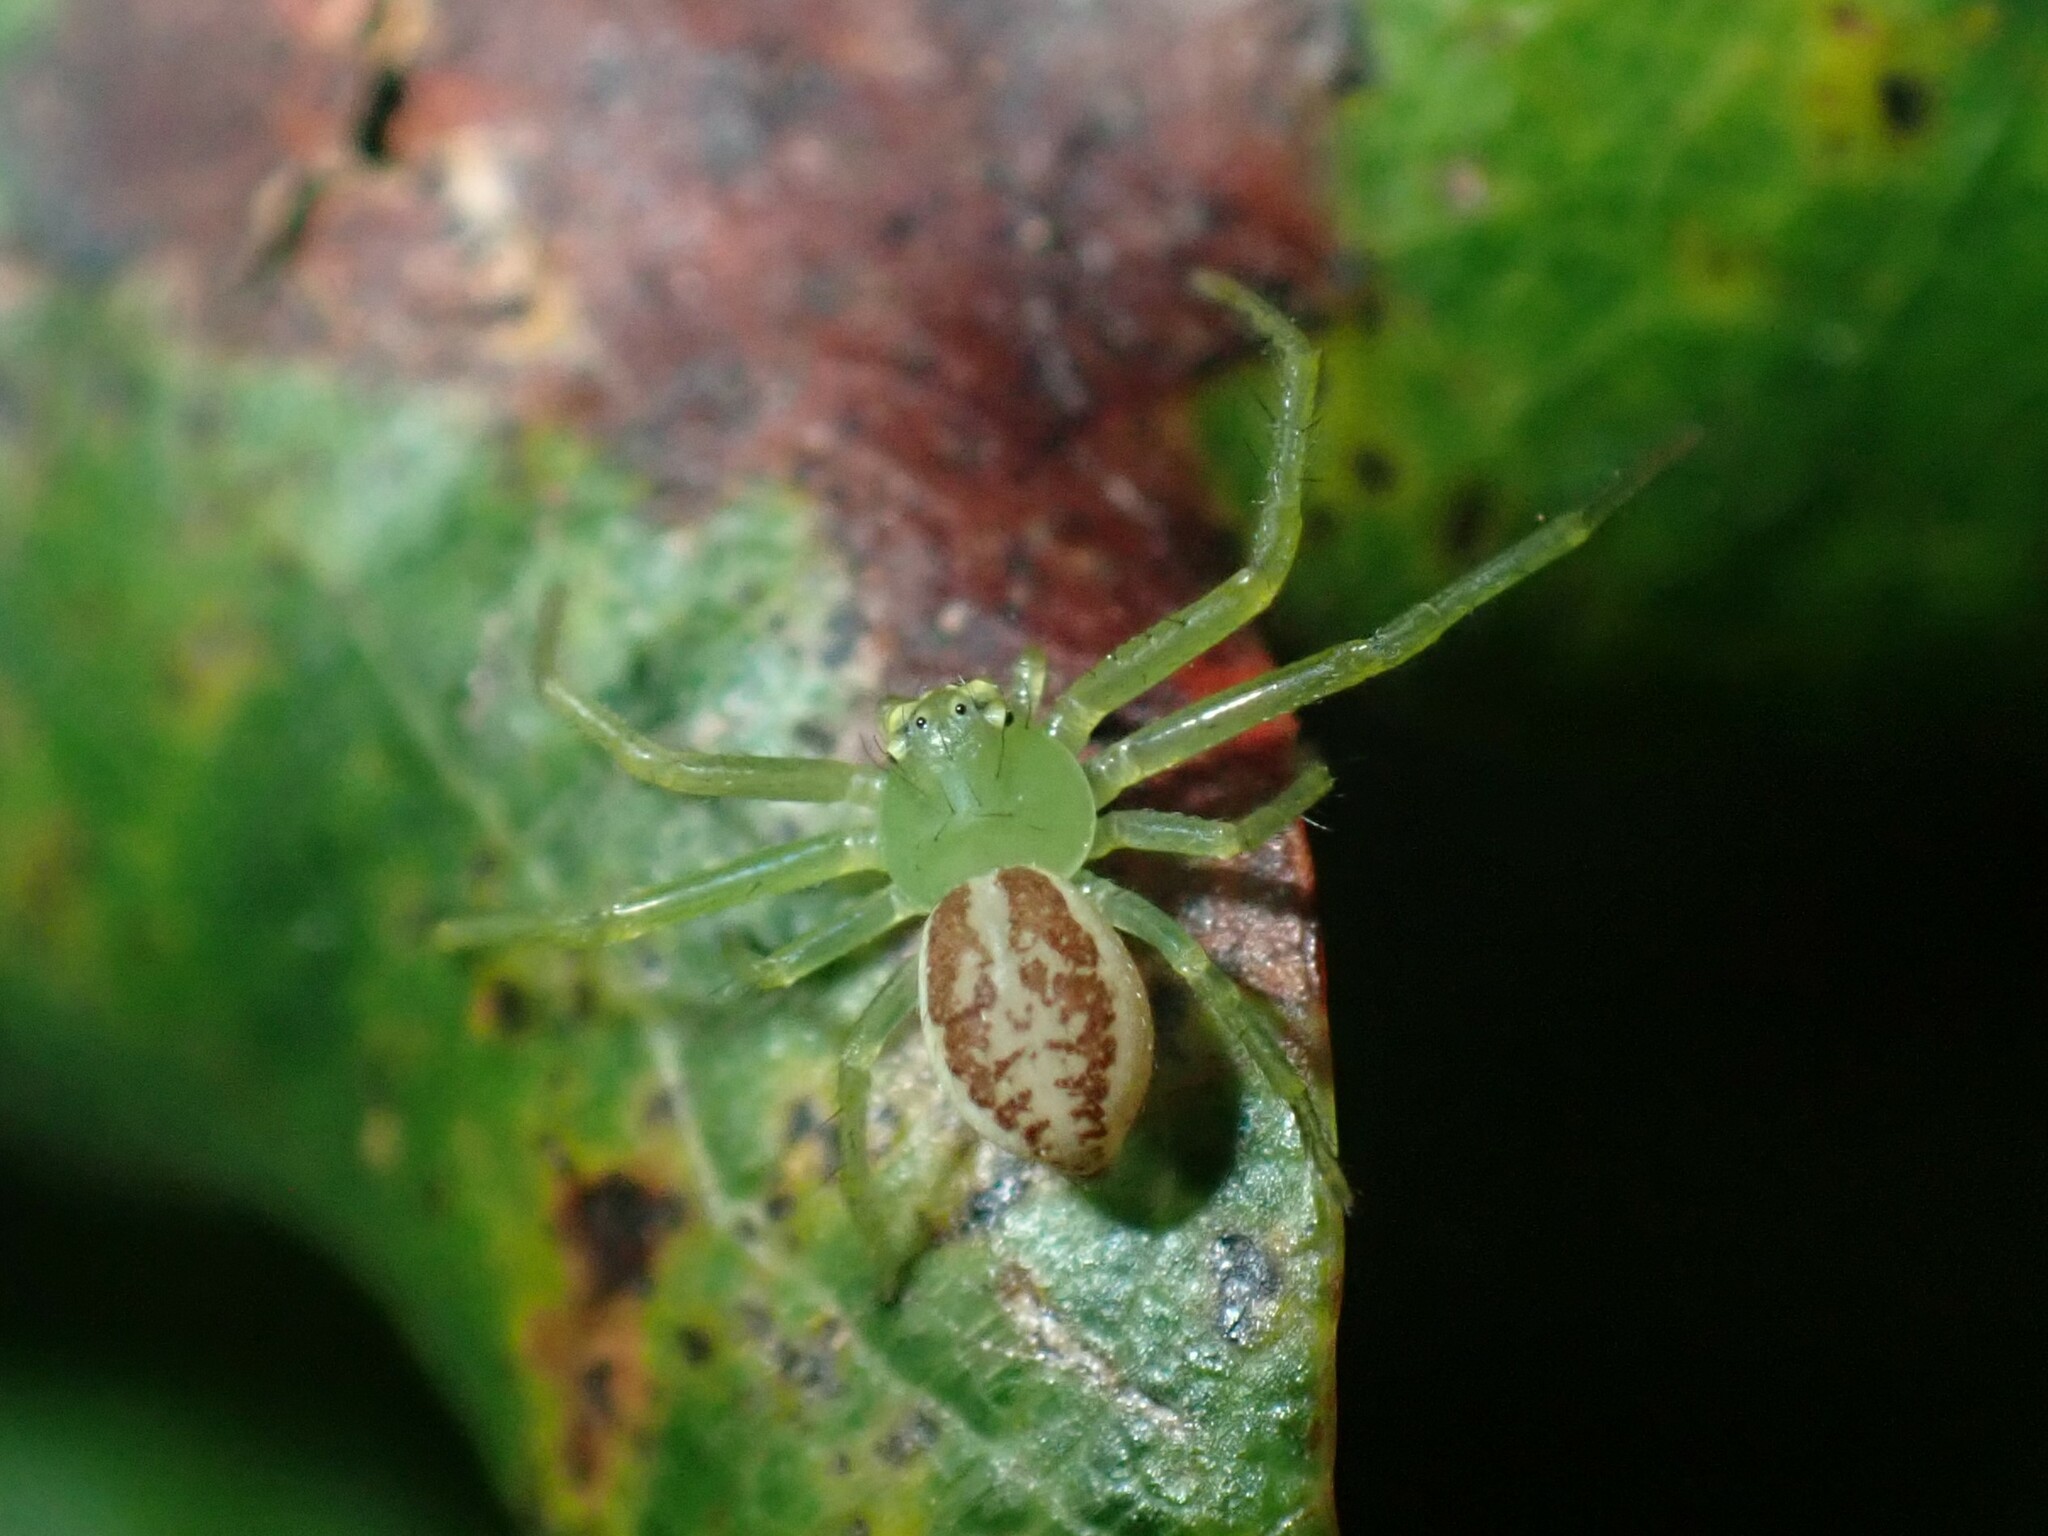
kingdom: Animalia
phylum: Arthropoda
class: Arachnida
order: Araneae
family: Thomisidae
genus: Diaea
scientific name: Diaea dorsata
